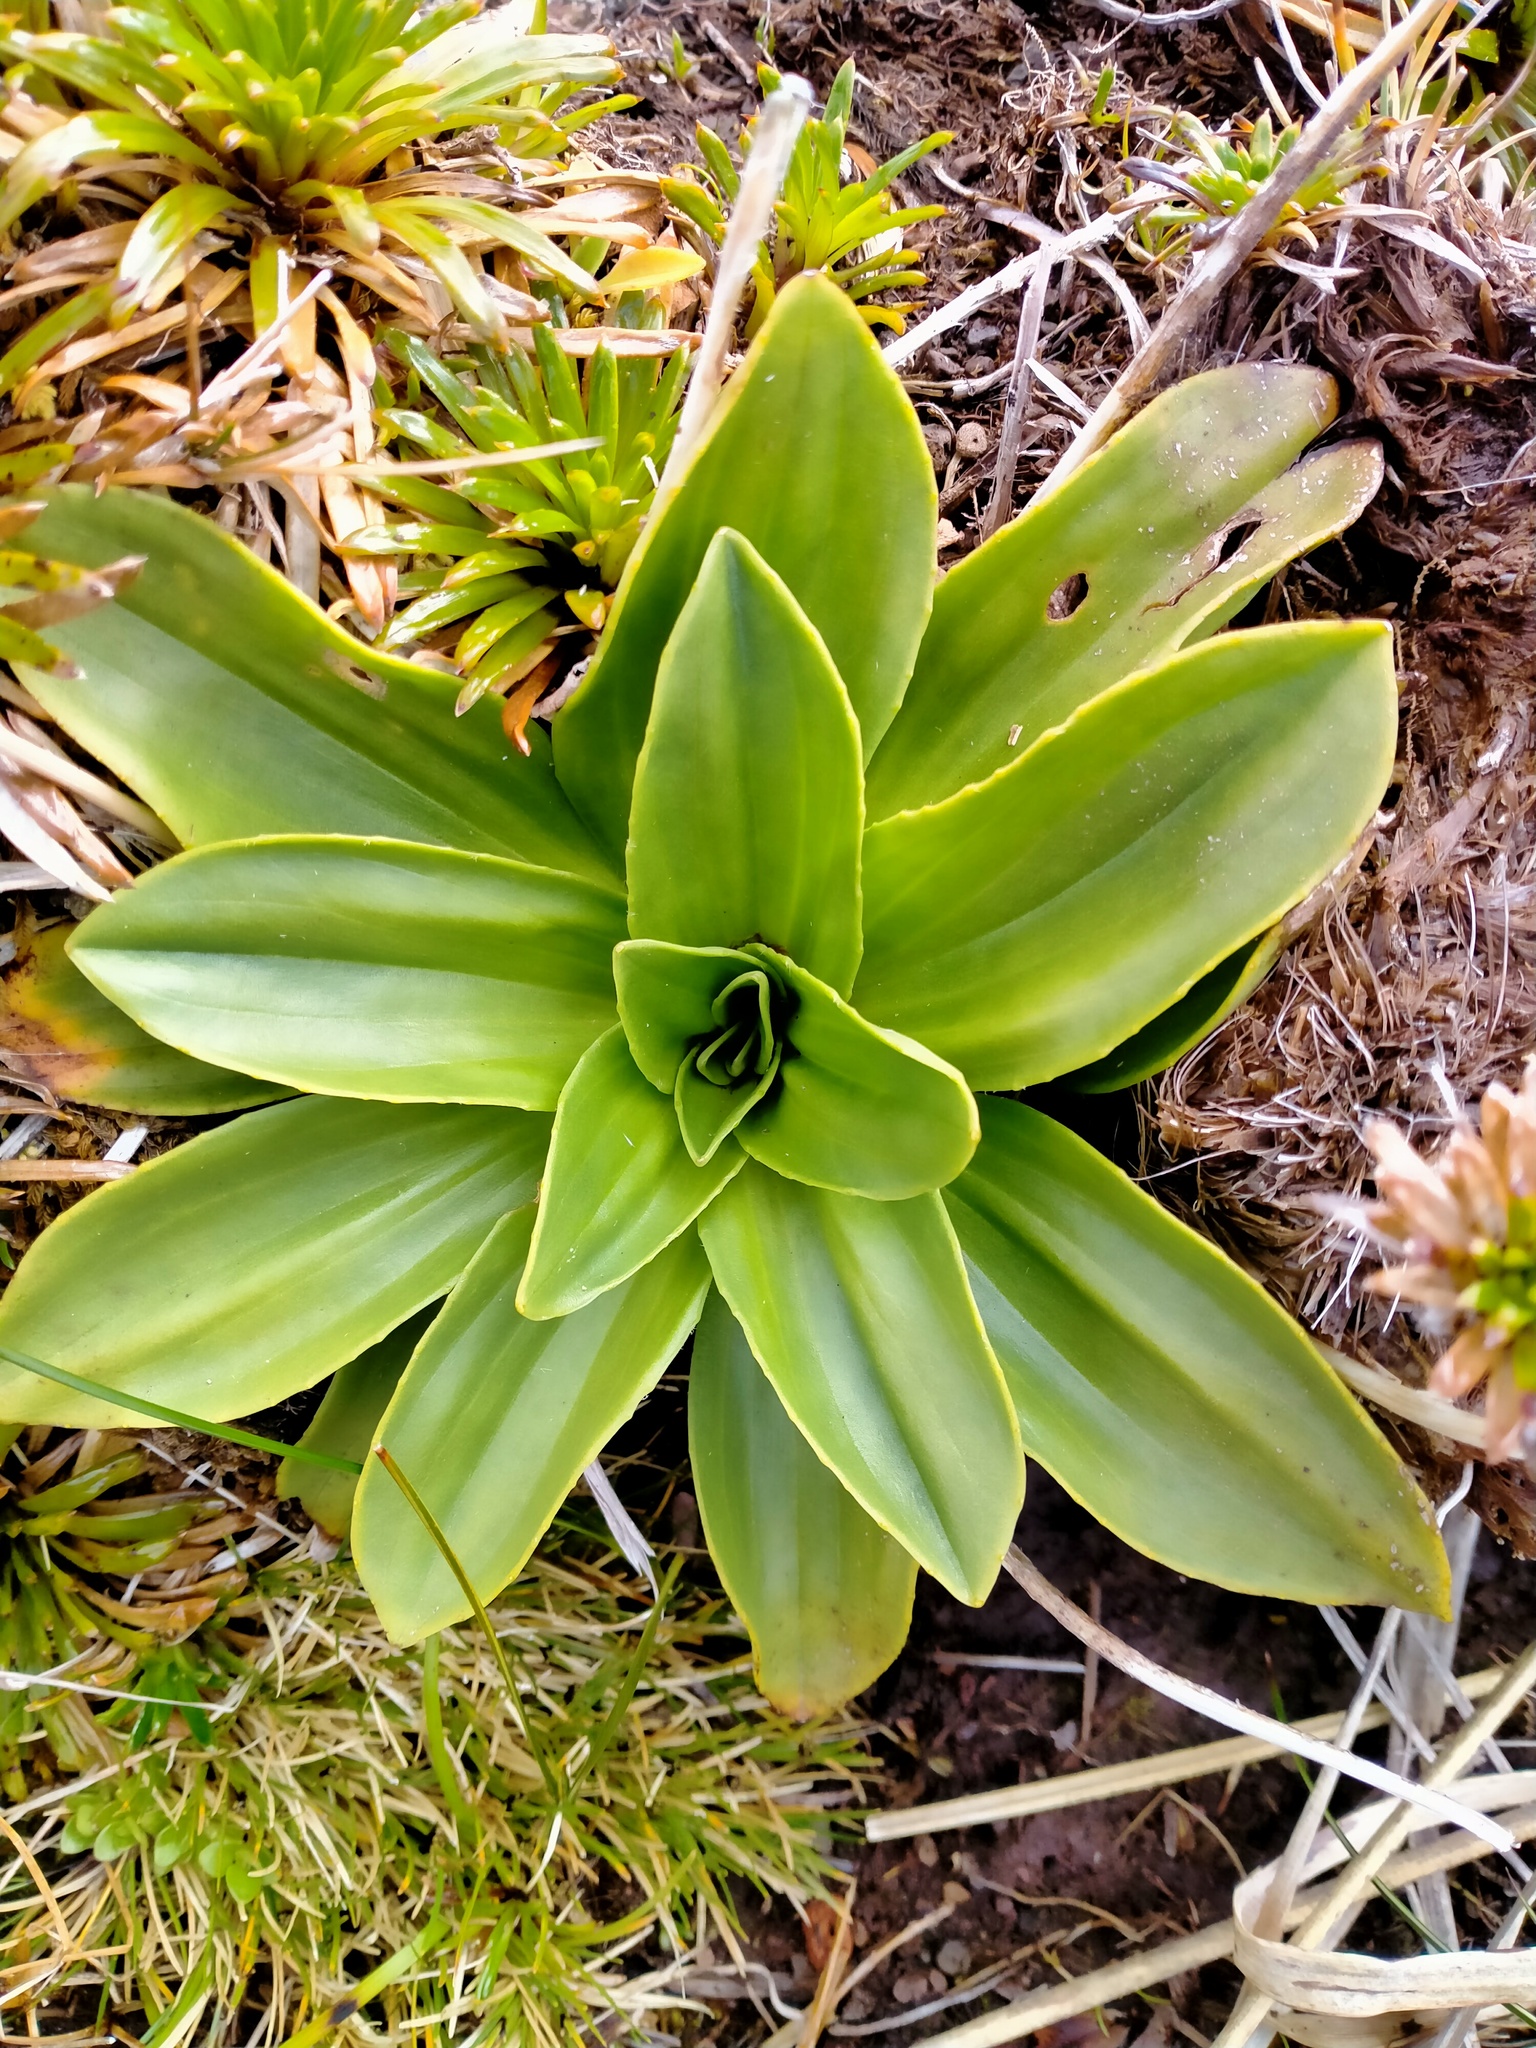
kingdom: Plantae
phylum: Tracheophyta
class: Magnoliopsida
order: Lamiales
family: Plantaginaceae
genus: Plantago
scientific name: Plantago aucklandica
